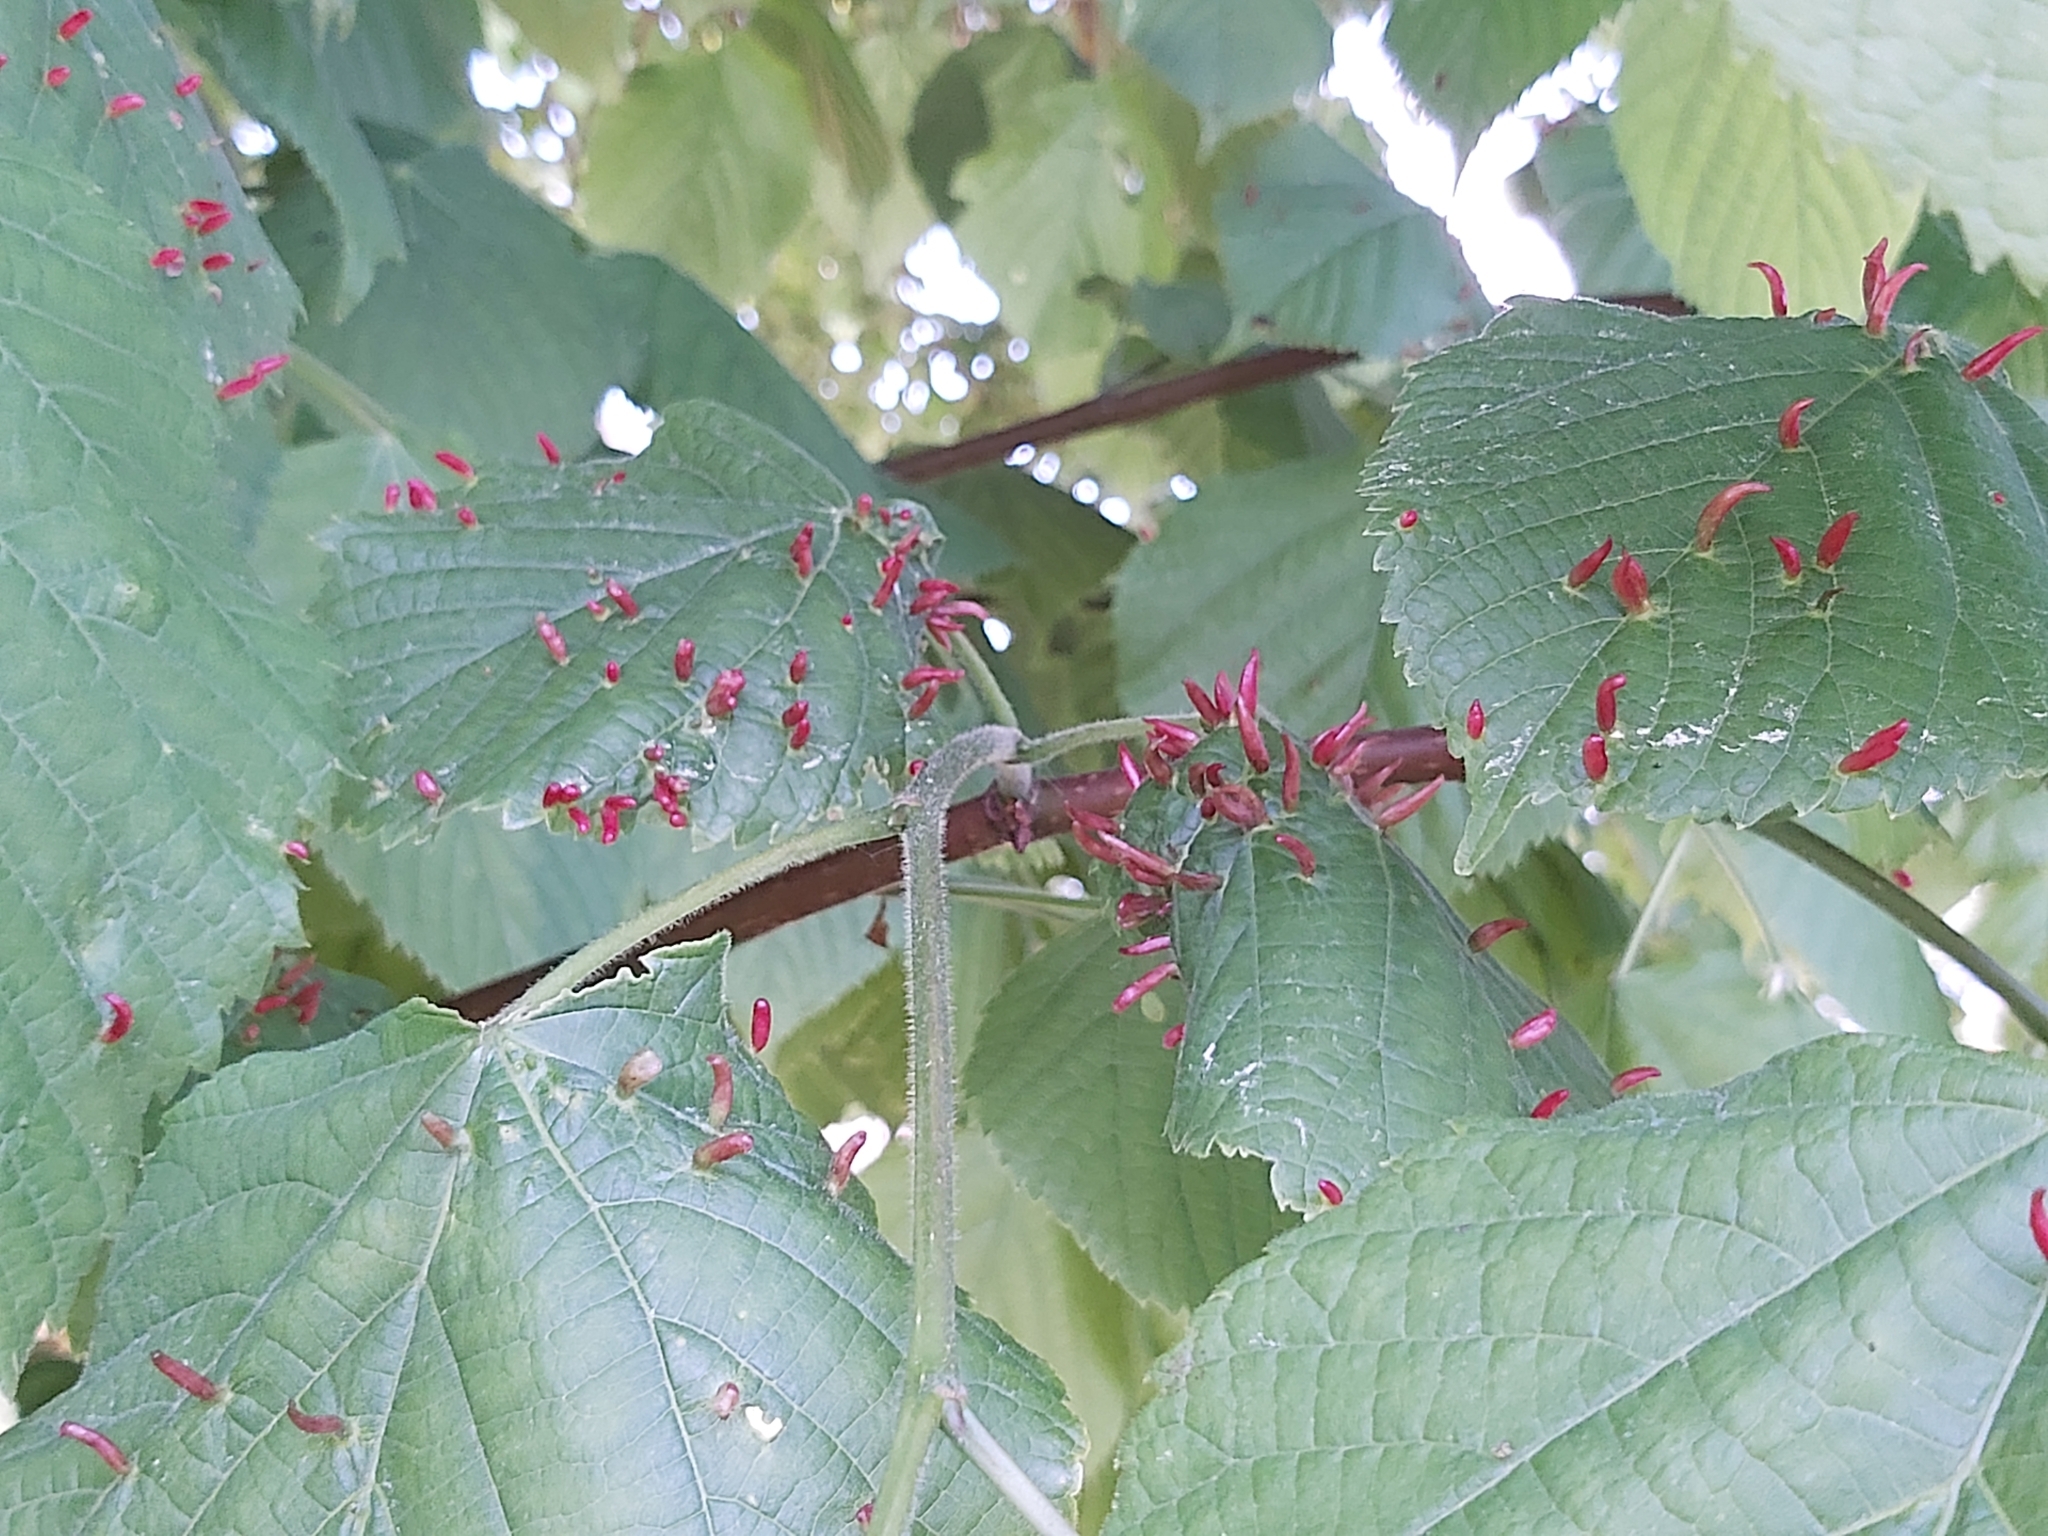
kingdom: Animalia
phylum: Arthropoda
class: Arachnida
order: Trombidiformes
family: Eriophyidae
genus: Eriophyes
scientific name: Eriophyes tiliae
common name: Red nail gall mite
